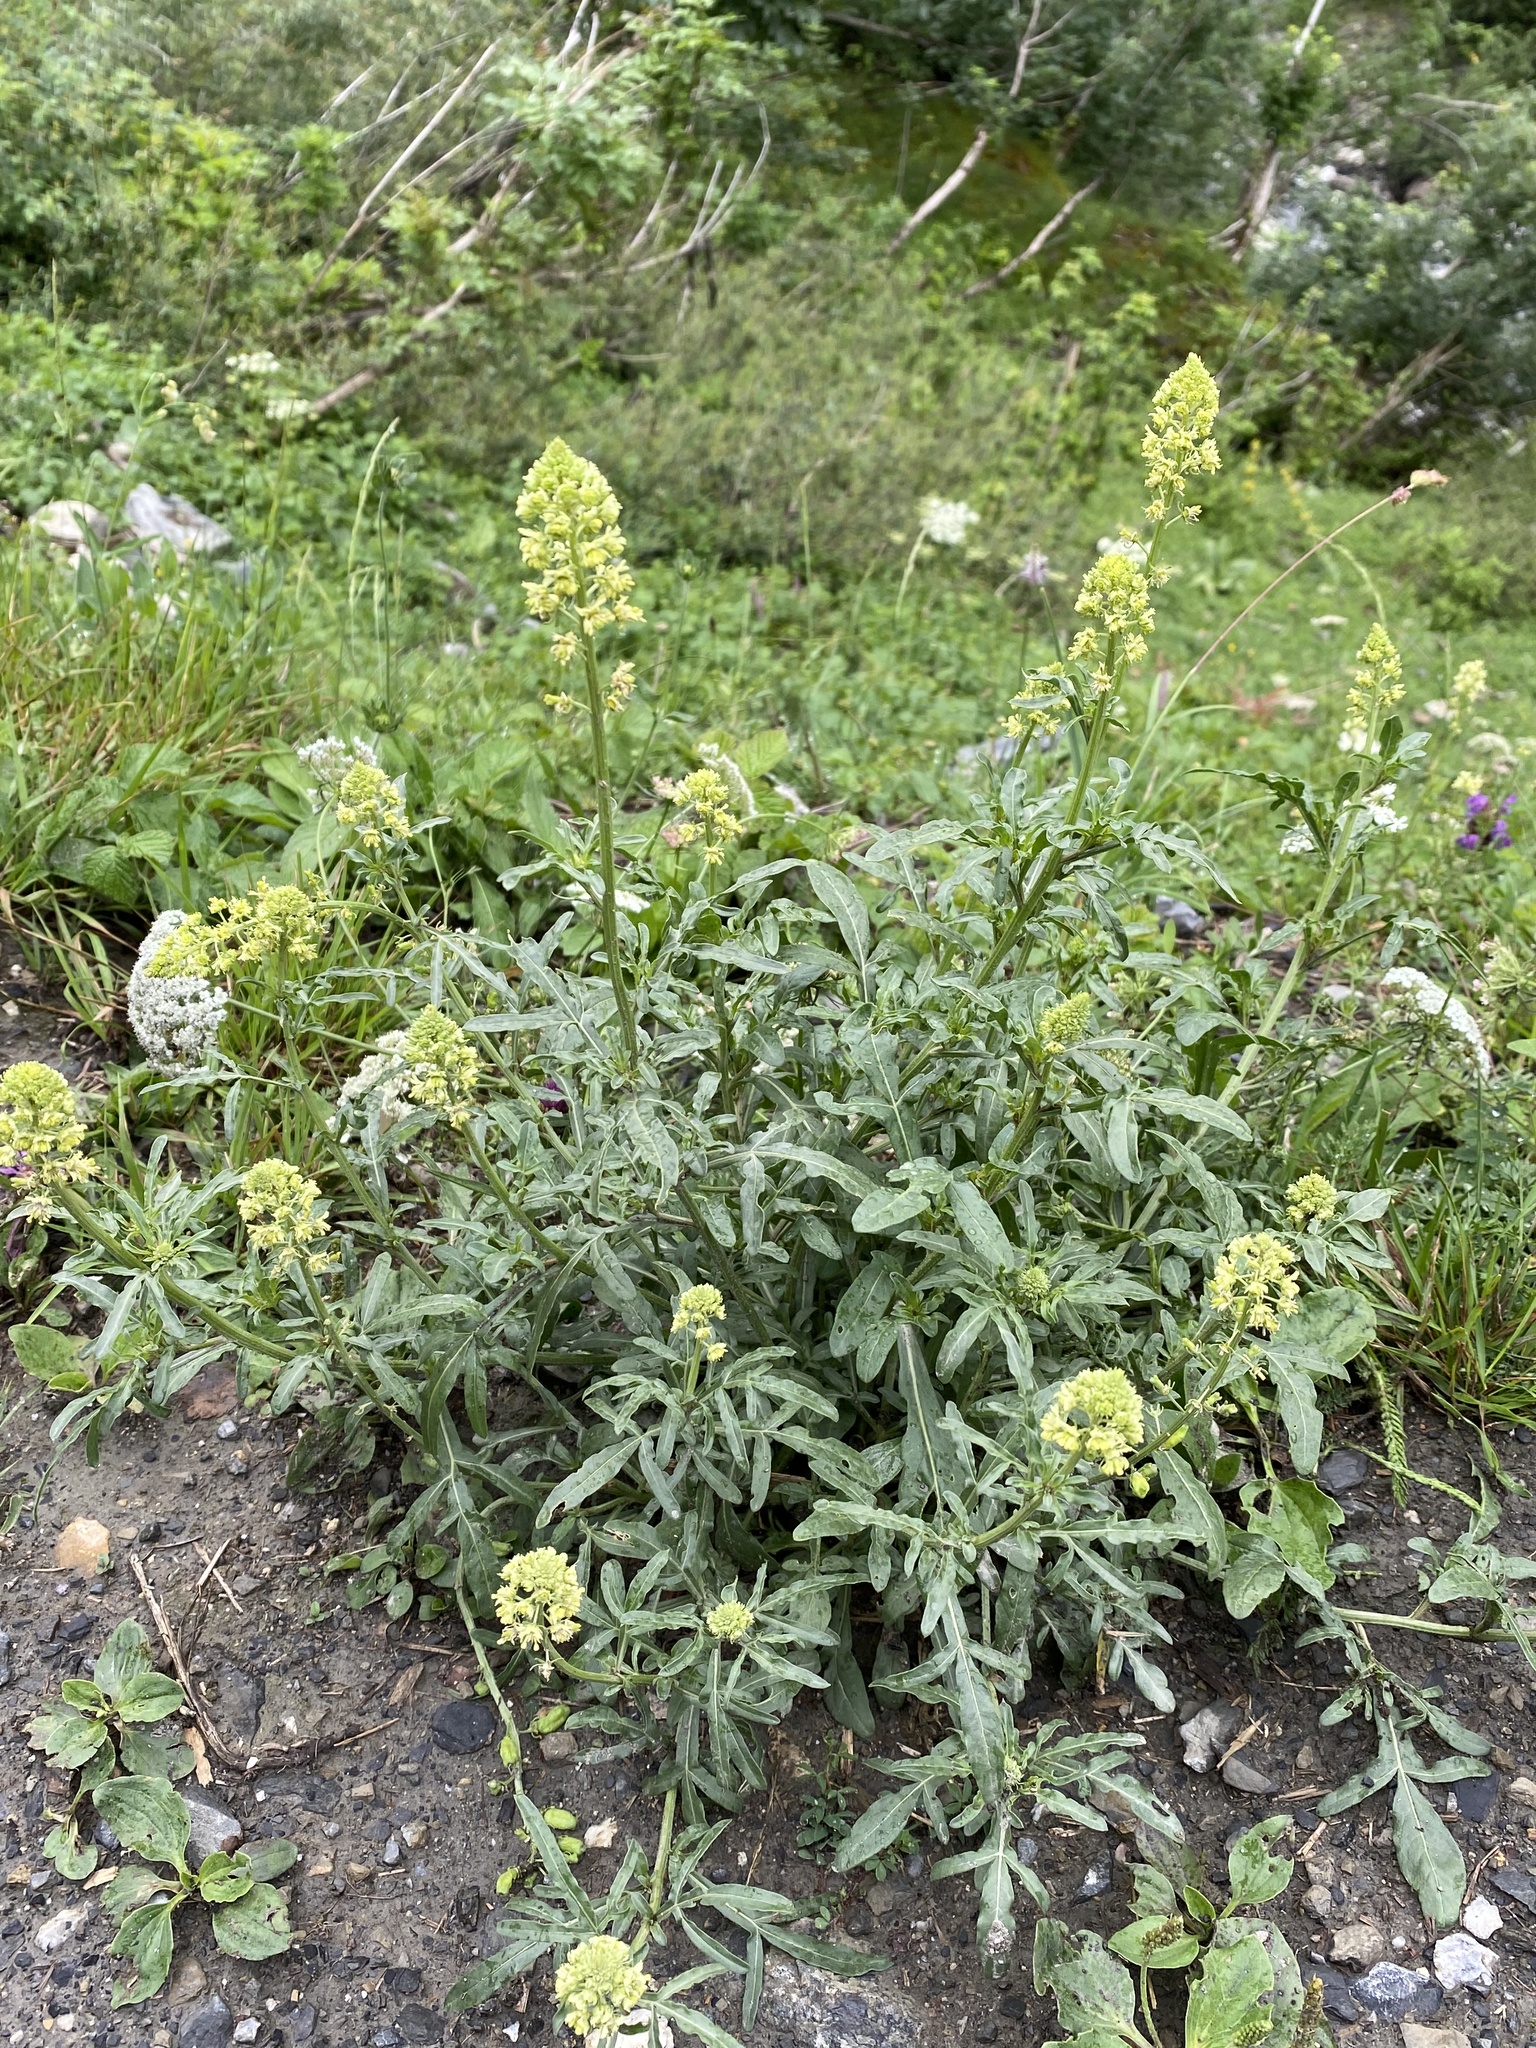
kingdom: Plantae
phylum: Tracheophyta
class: Magnoliopsida
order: Brassicales
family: Resedaceae
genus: Reseda
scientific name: Reseda lutea
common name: Wild mignonette
